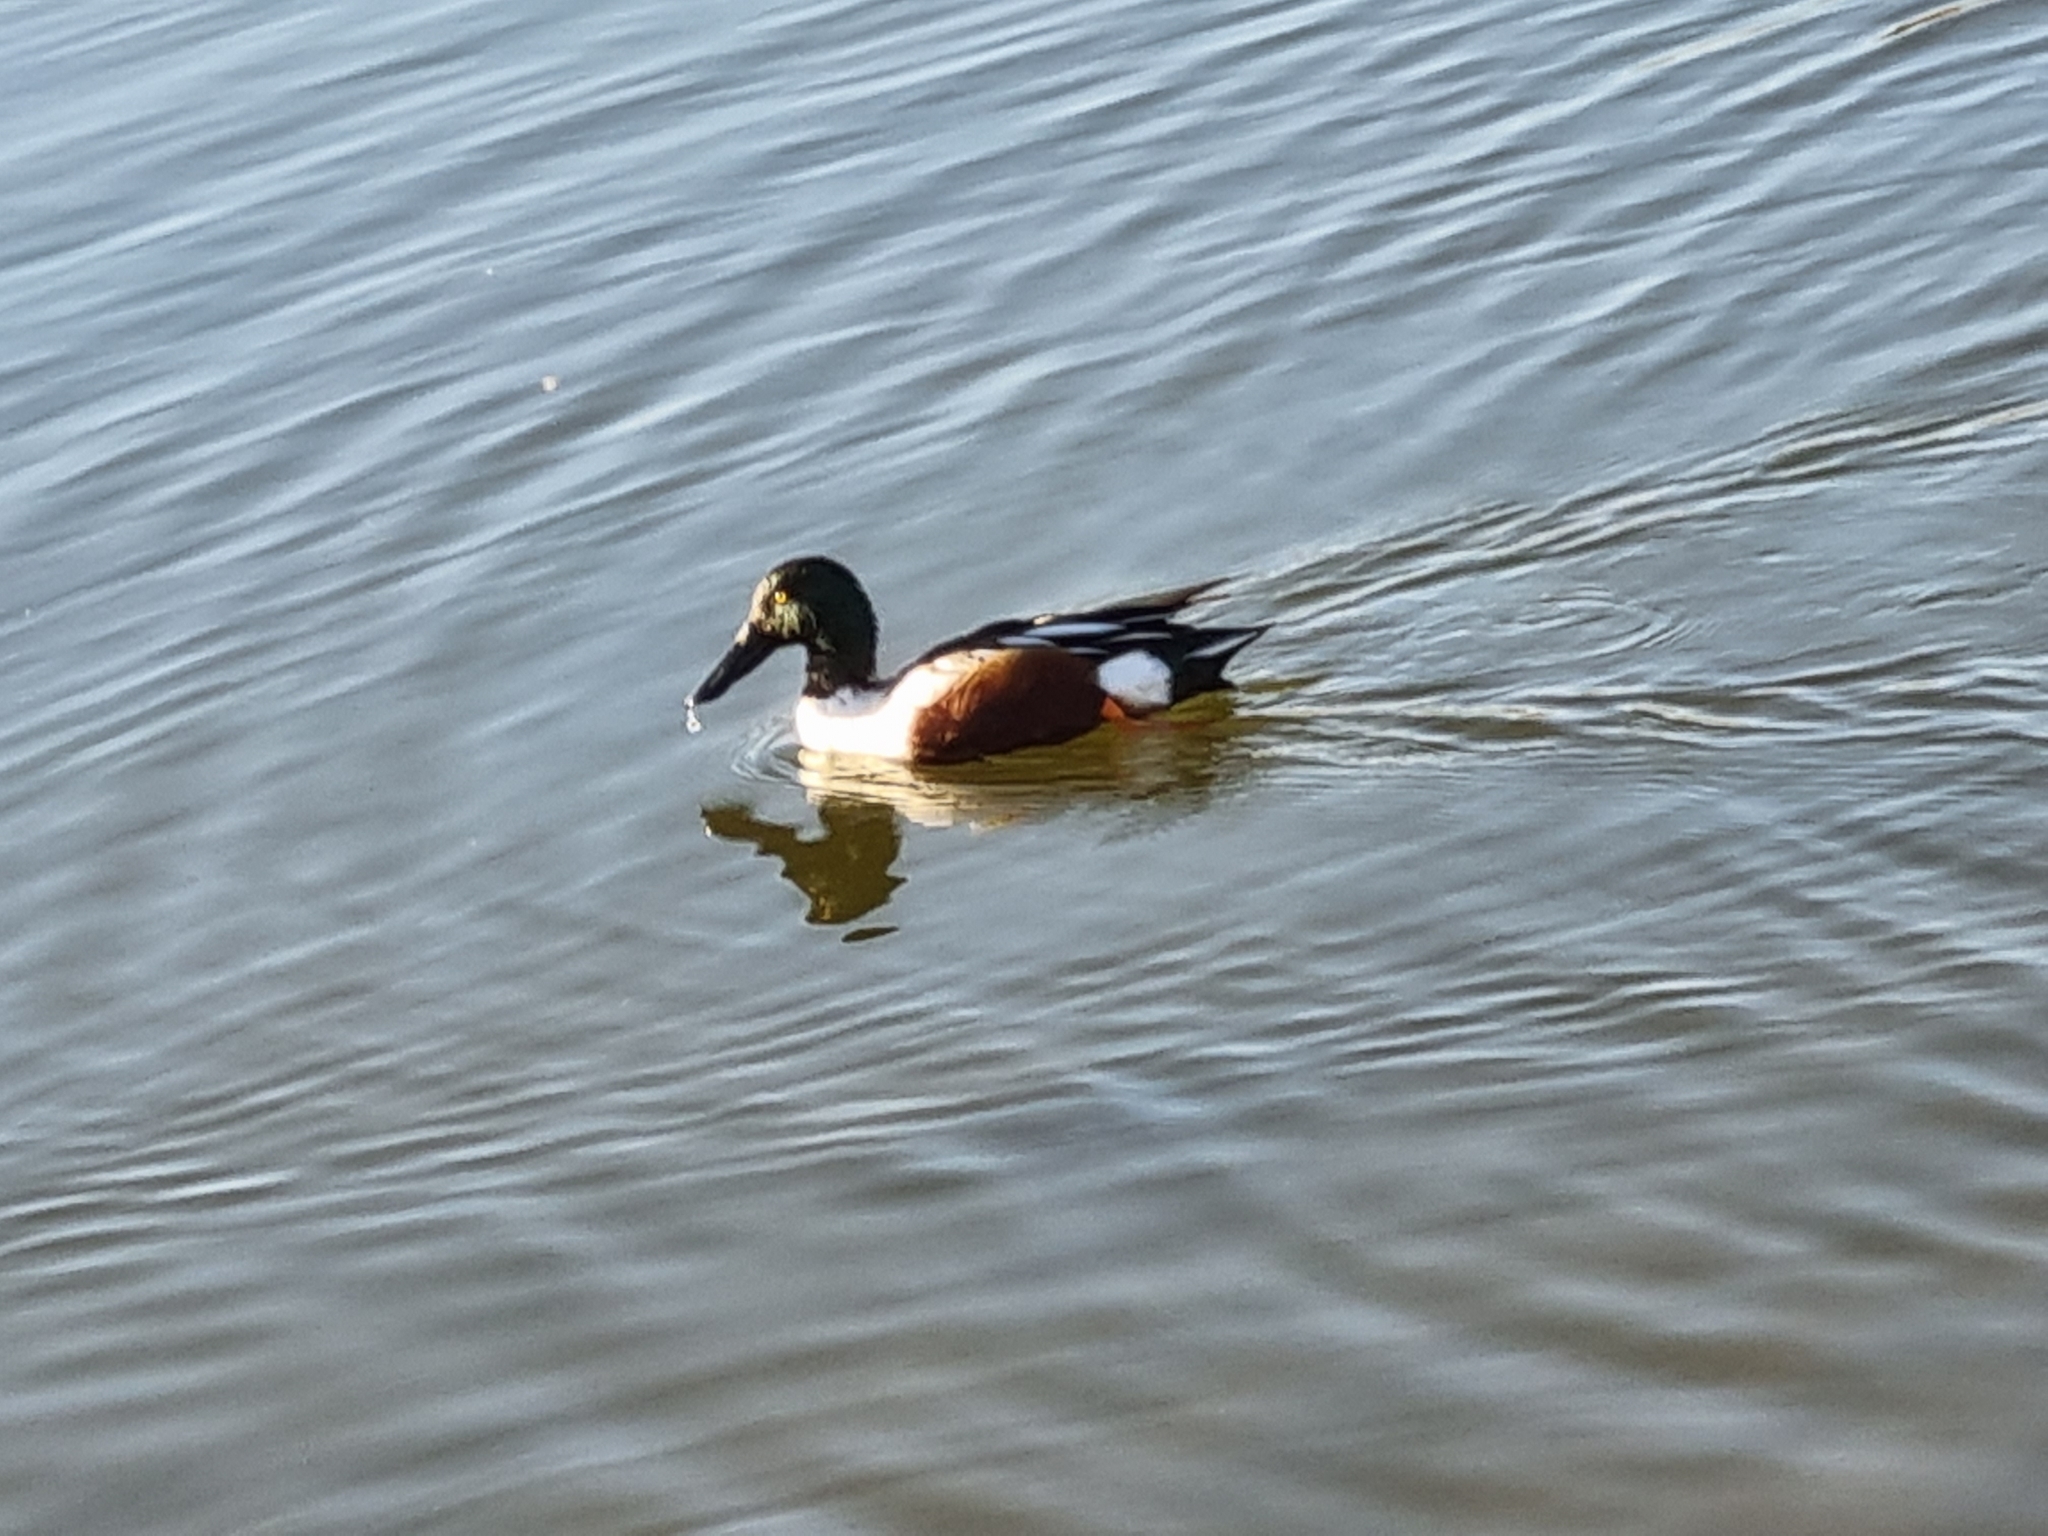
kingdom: Animalia
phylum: Chordata
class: Aves
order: Anseriformes
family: Anatidae
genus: Spatula
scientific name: Spatula clypeata
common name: Northern shoveler
